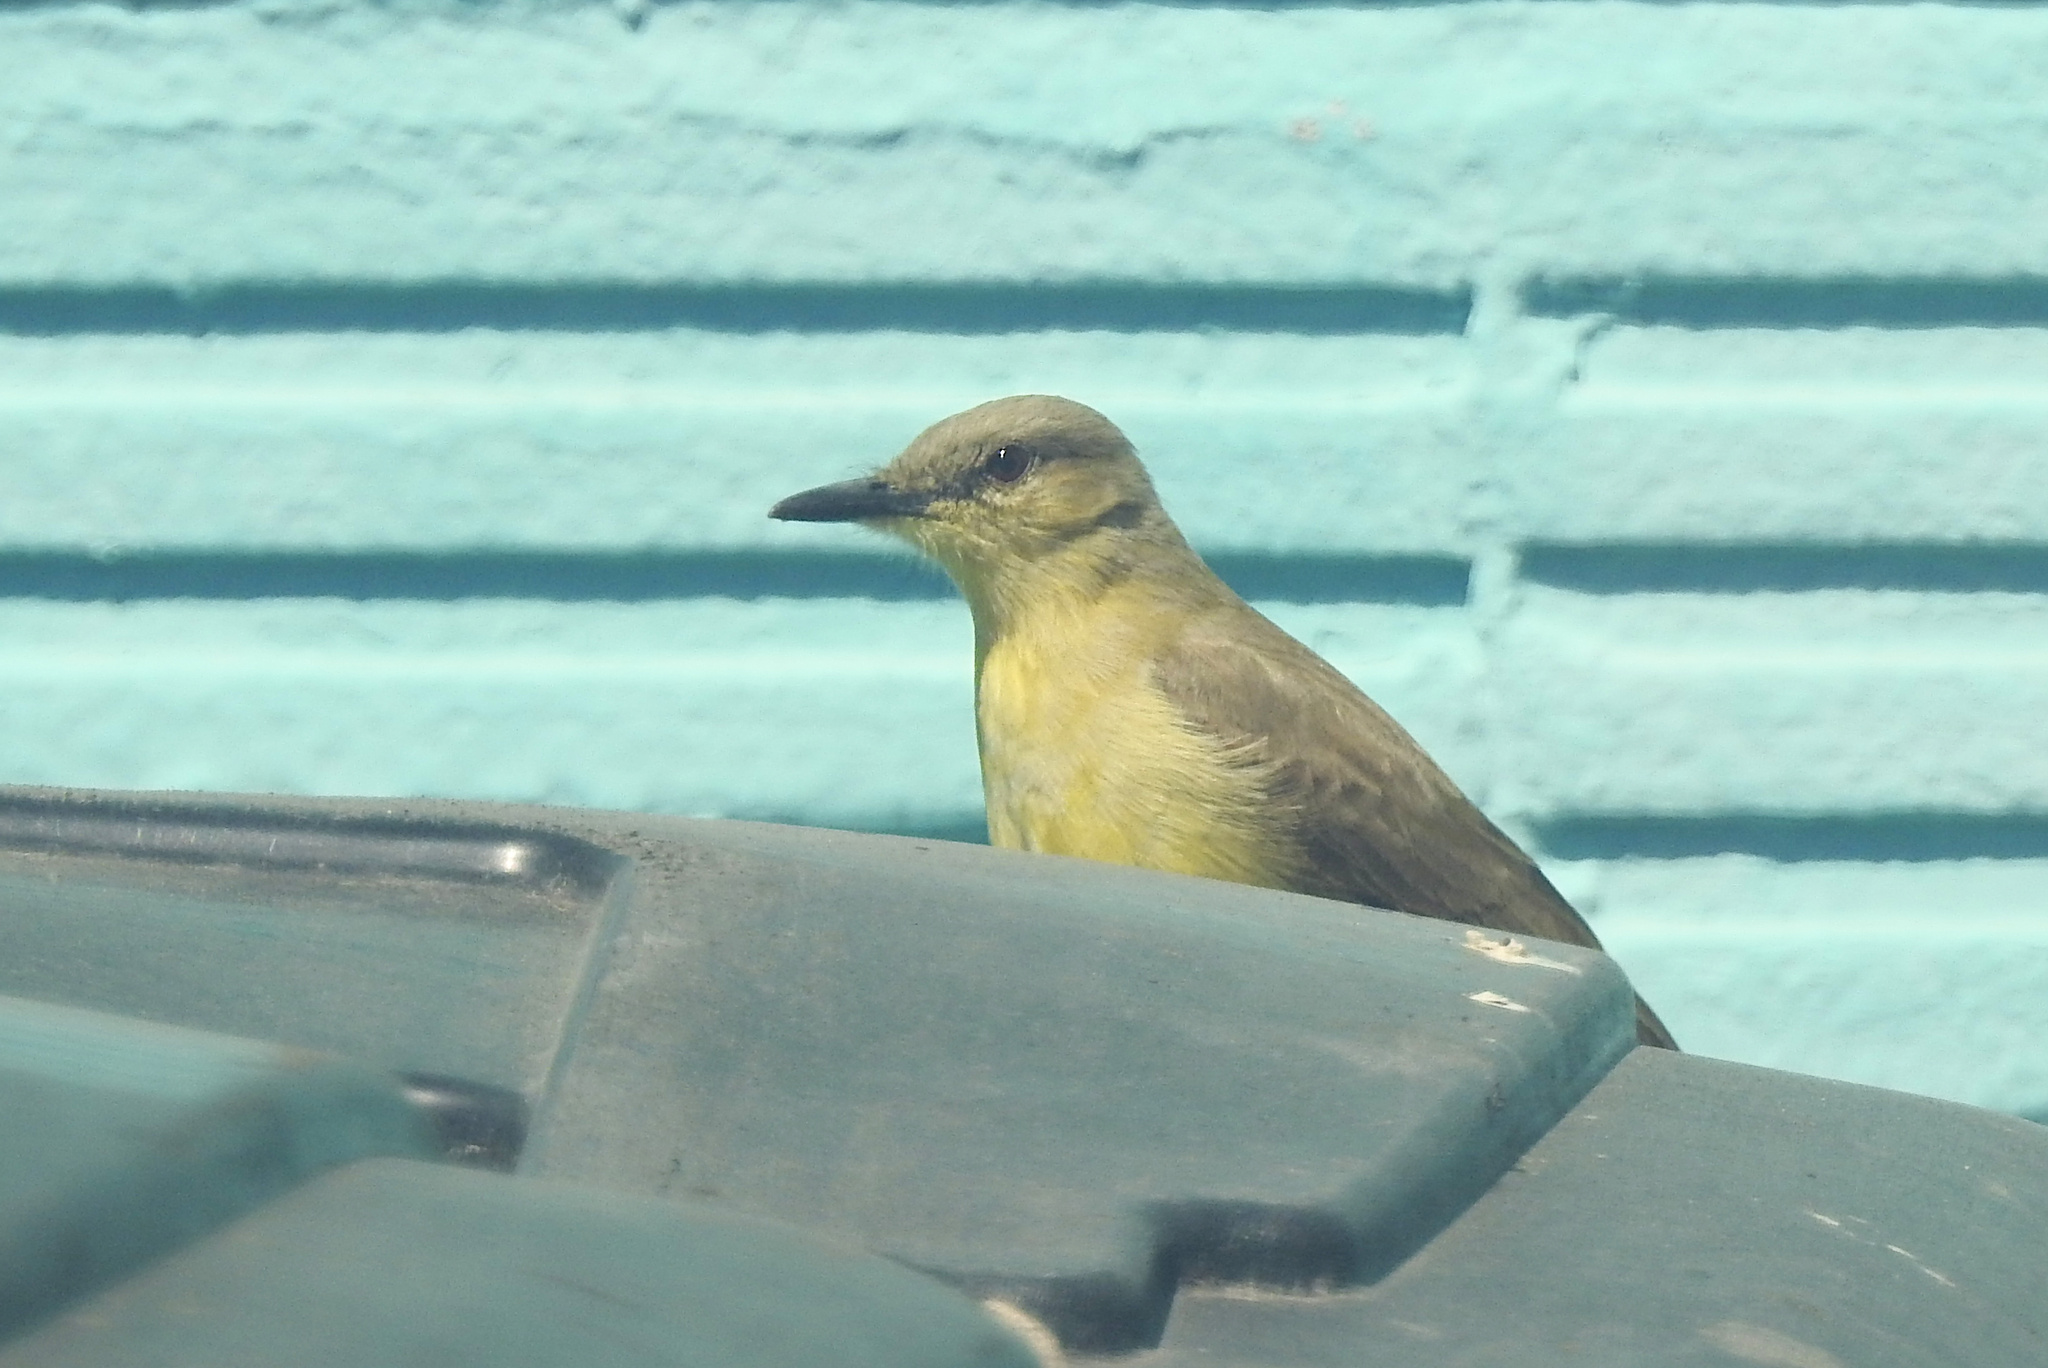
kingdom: Animalia
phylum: Chordata
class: Aves
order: Passeriformes
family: Tyrannidae
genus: Machetornis
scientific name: Machetornis rixosa
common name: Cattle tyrant
